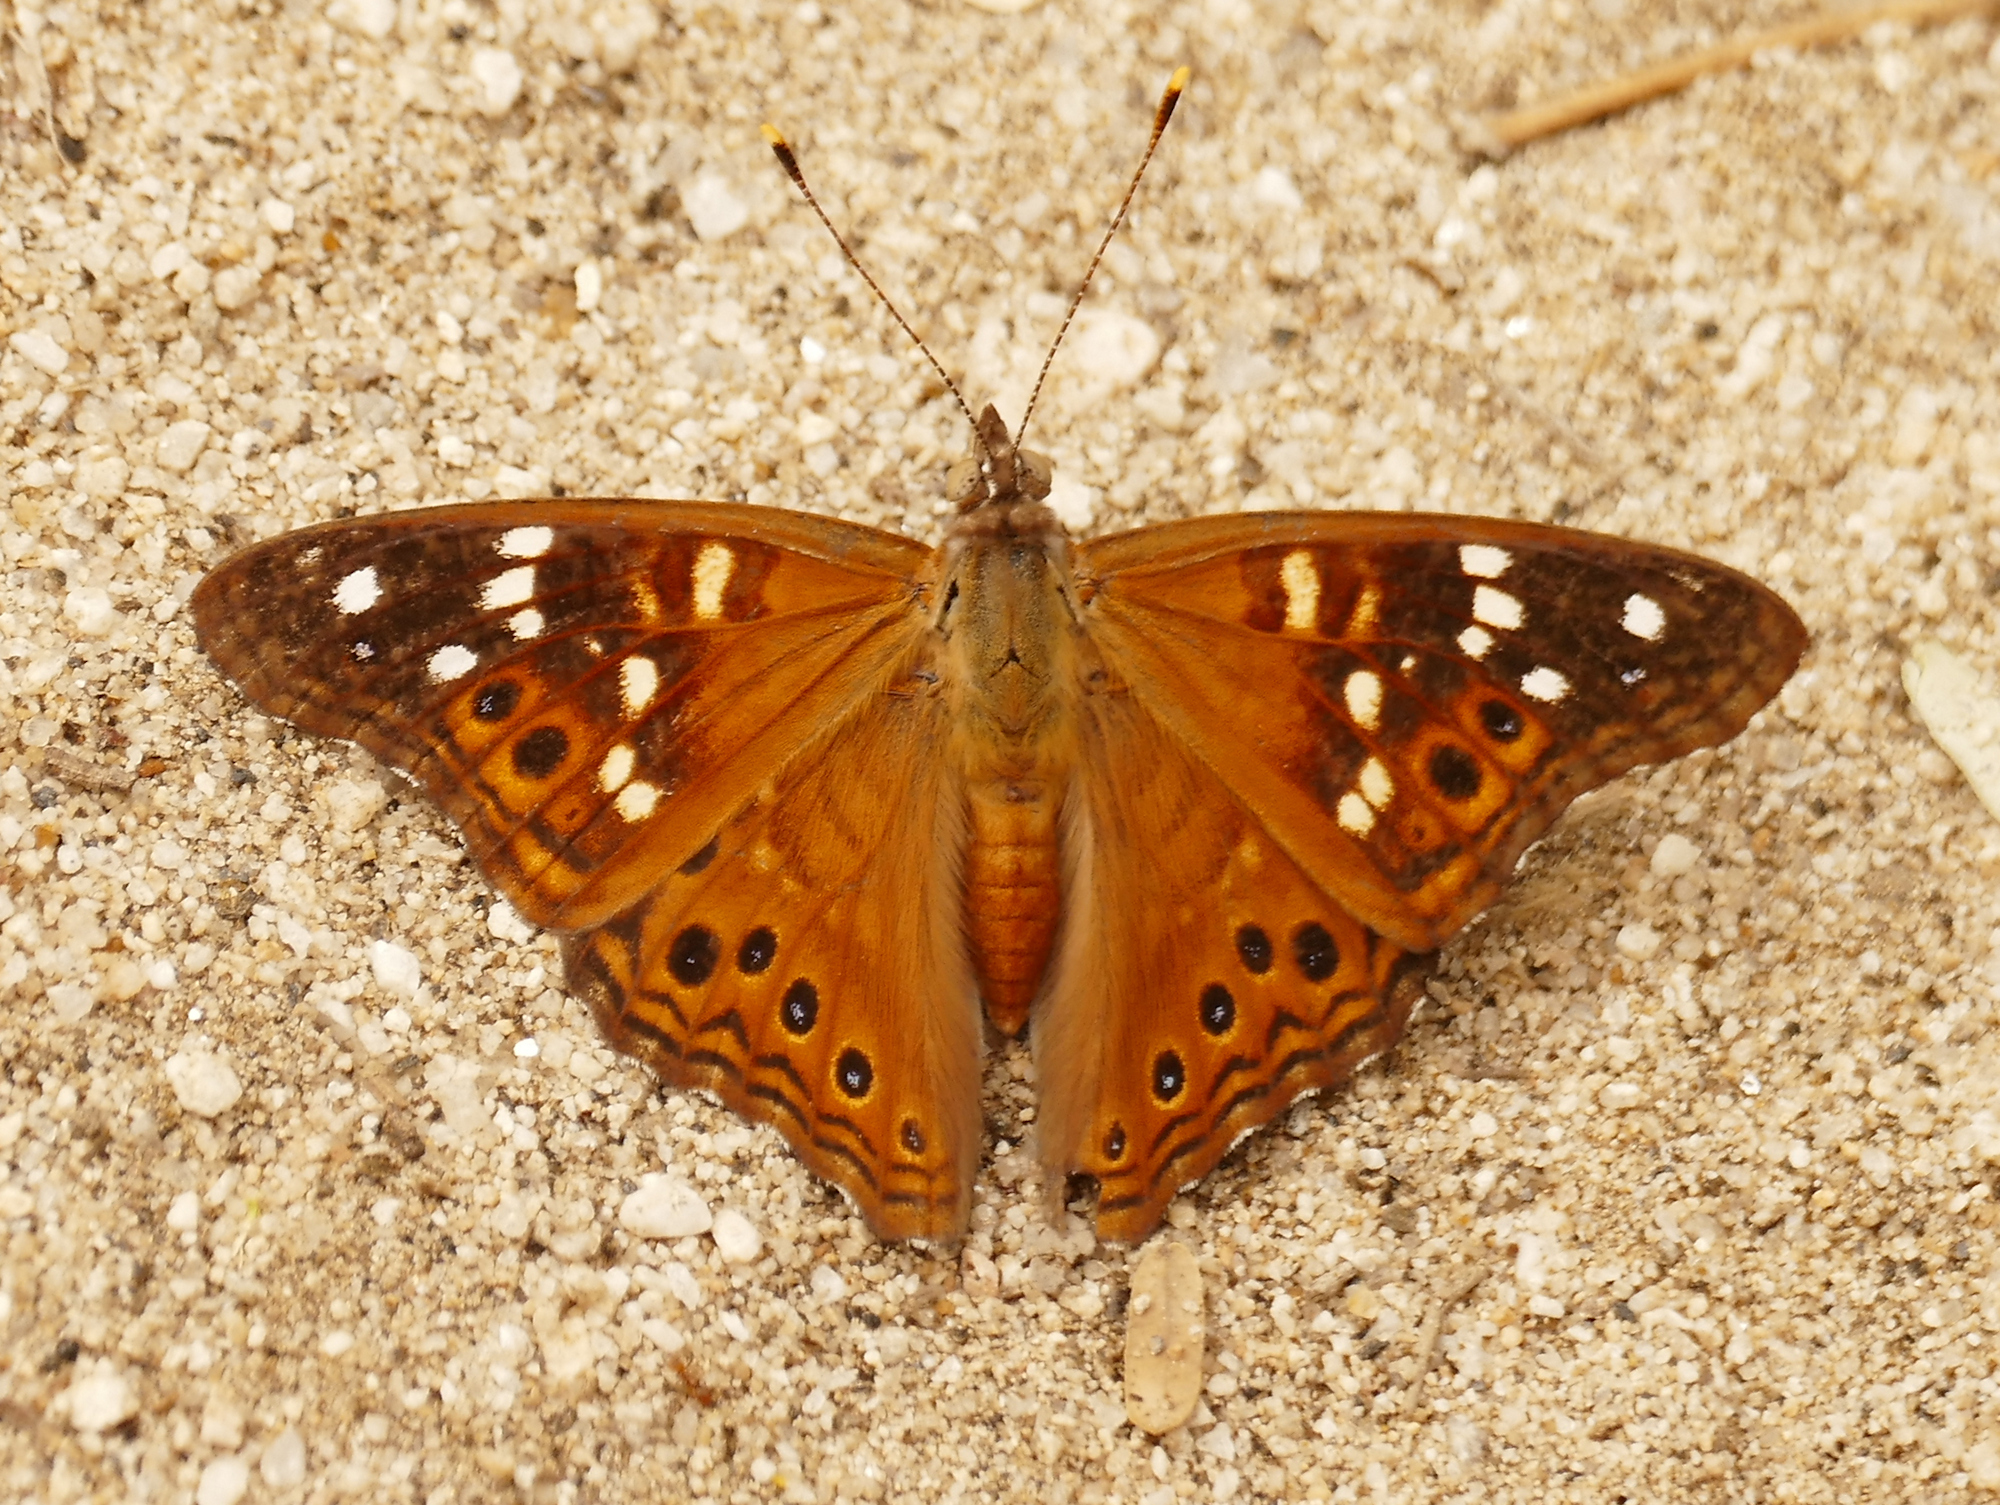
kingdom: Animalia
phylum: Arthropoda
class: Insecta
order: Lepidoptera
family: Nymphalidae
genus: Asterocampa
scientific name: Asterocampa leilia
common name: Empress leilia
